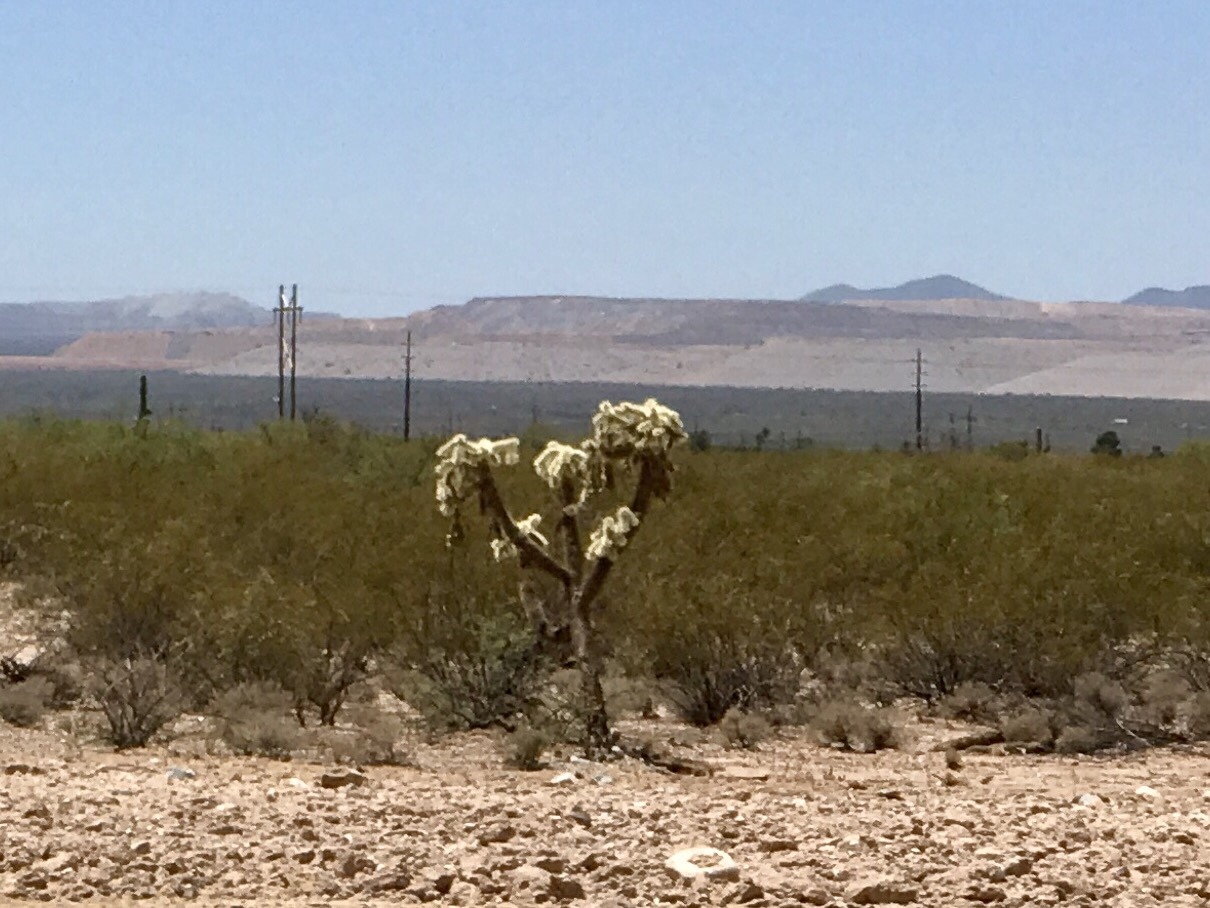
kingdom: Plantae
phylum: Tracheophyta
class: Magnoliopsida
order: Caryophyllales
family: Cactaceae
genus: Cylindropuntia
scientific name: Cylindropuntia fulgida
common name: Jumping cholla
